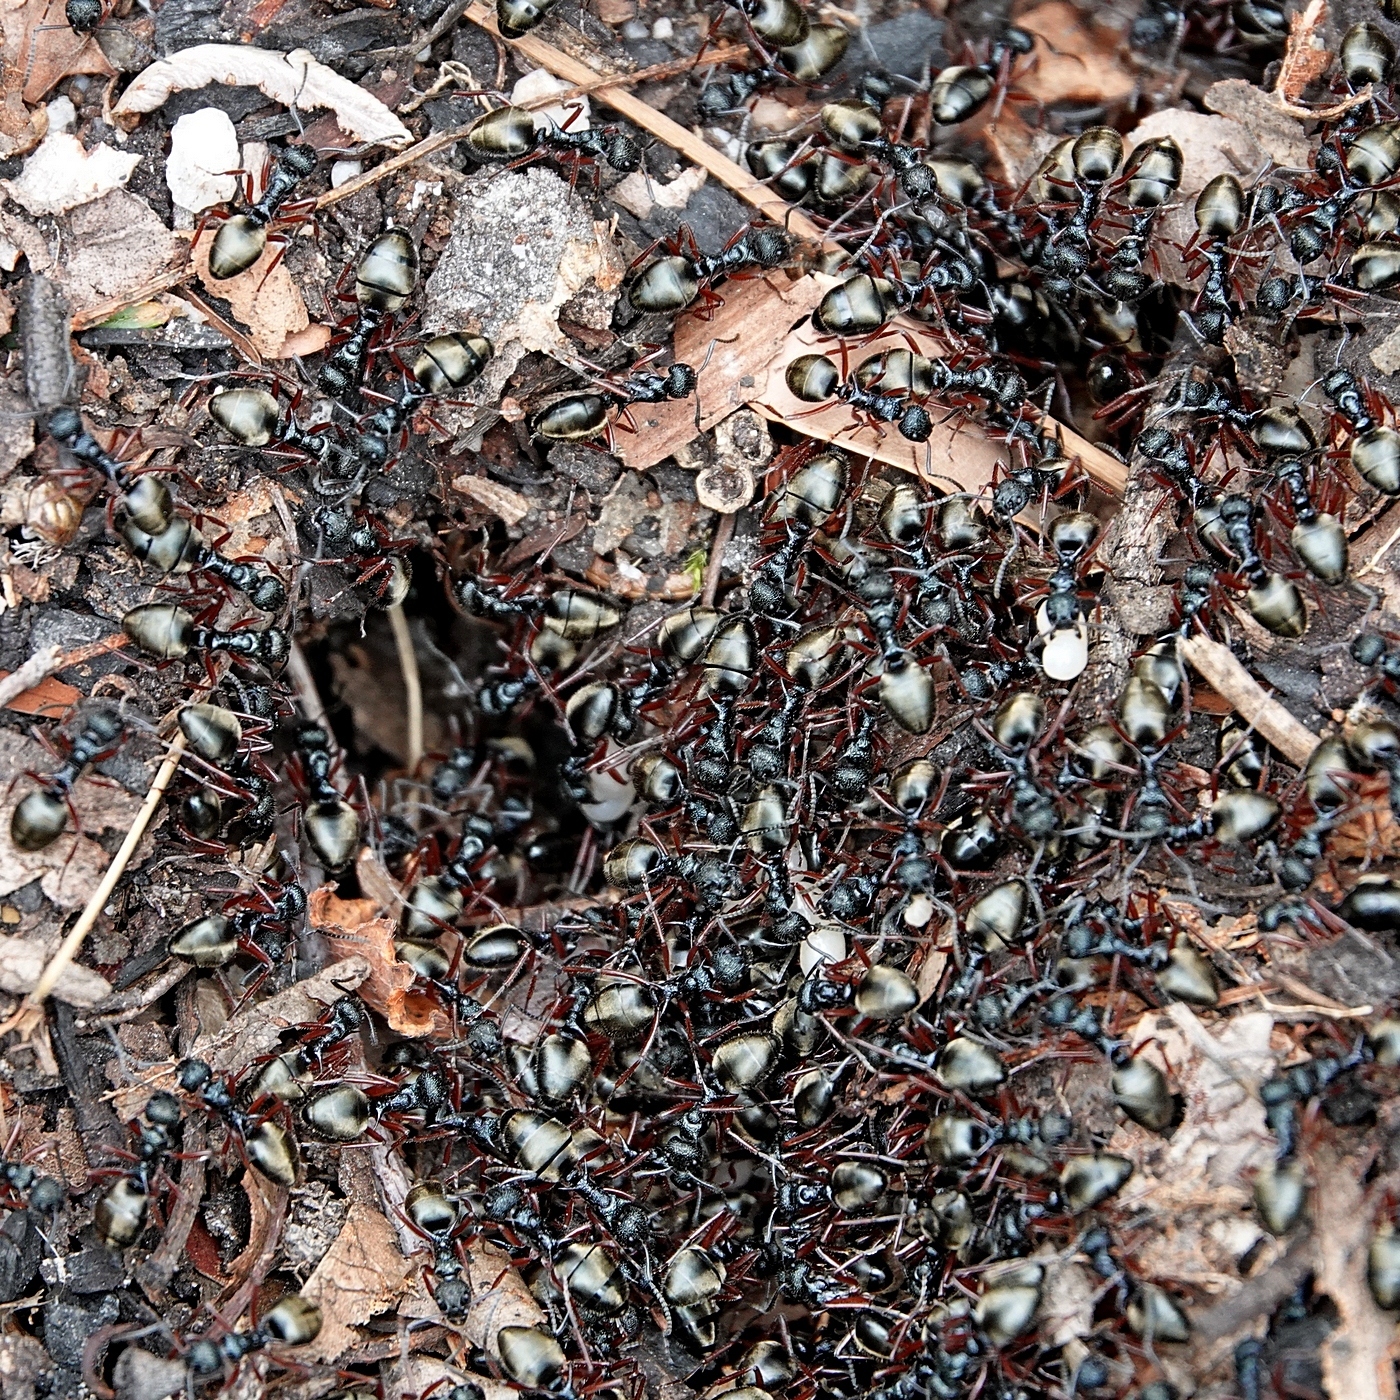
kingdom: Animalia
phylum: Arthropoda
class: Insecta
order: Hymenoptera
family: Formicidae
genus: Dolichoderus
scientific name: Dolichoderus doriae
